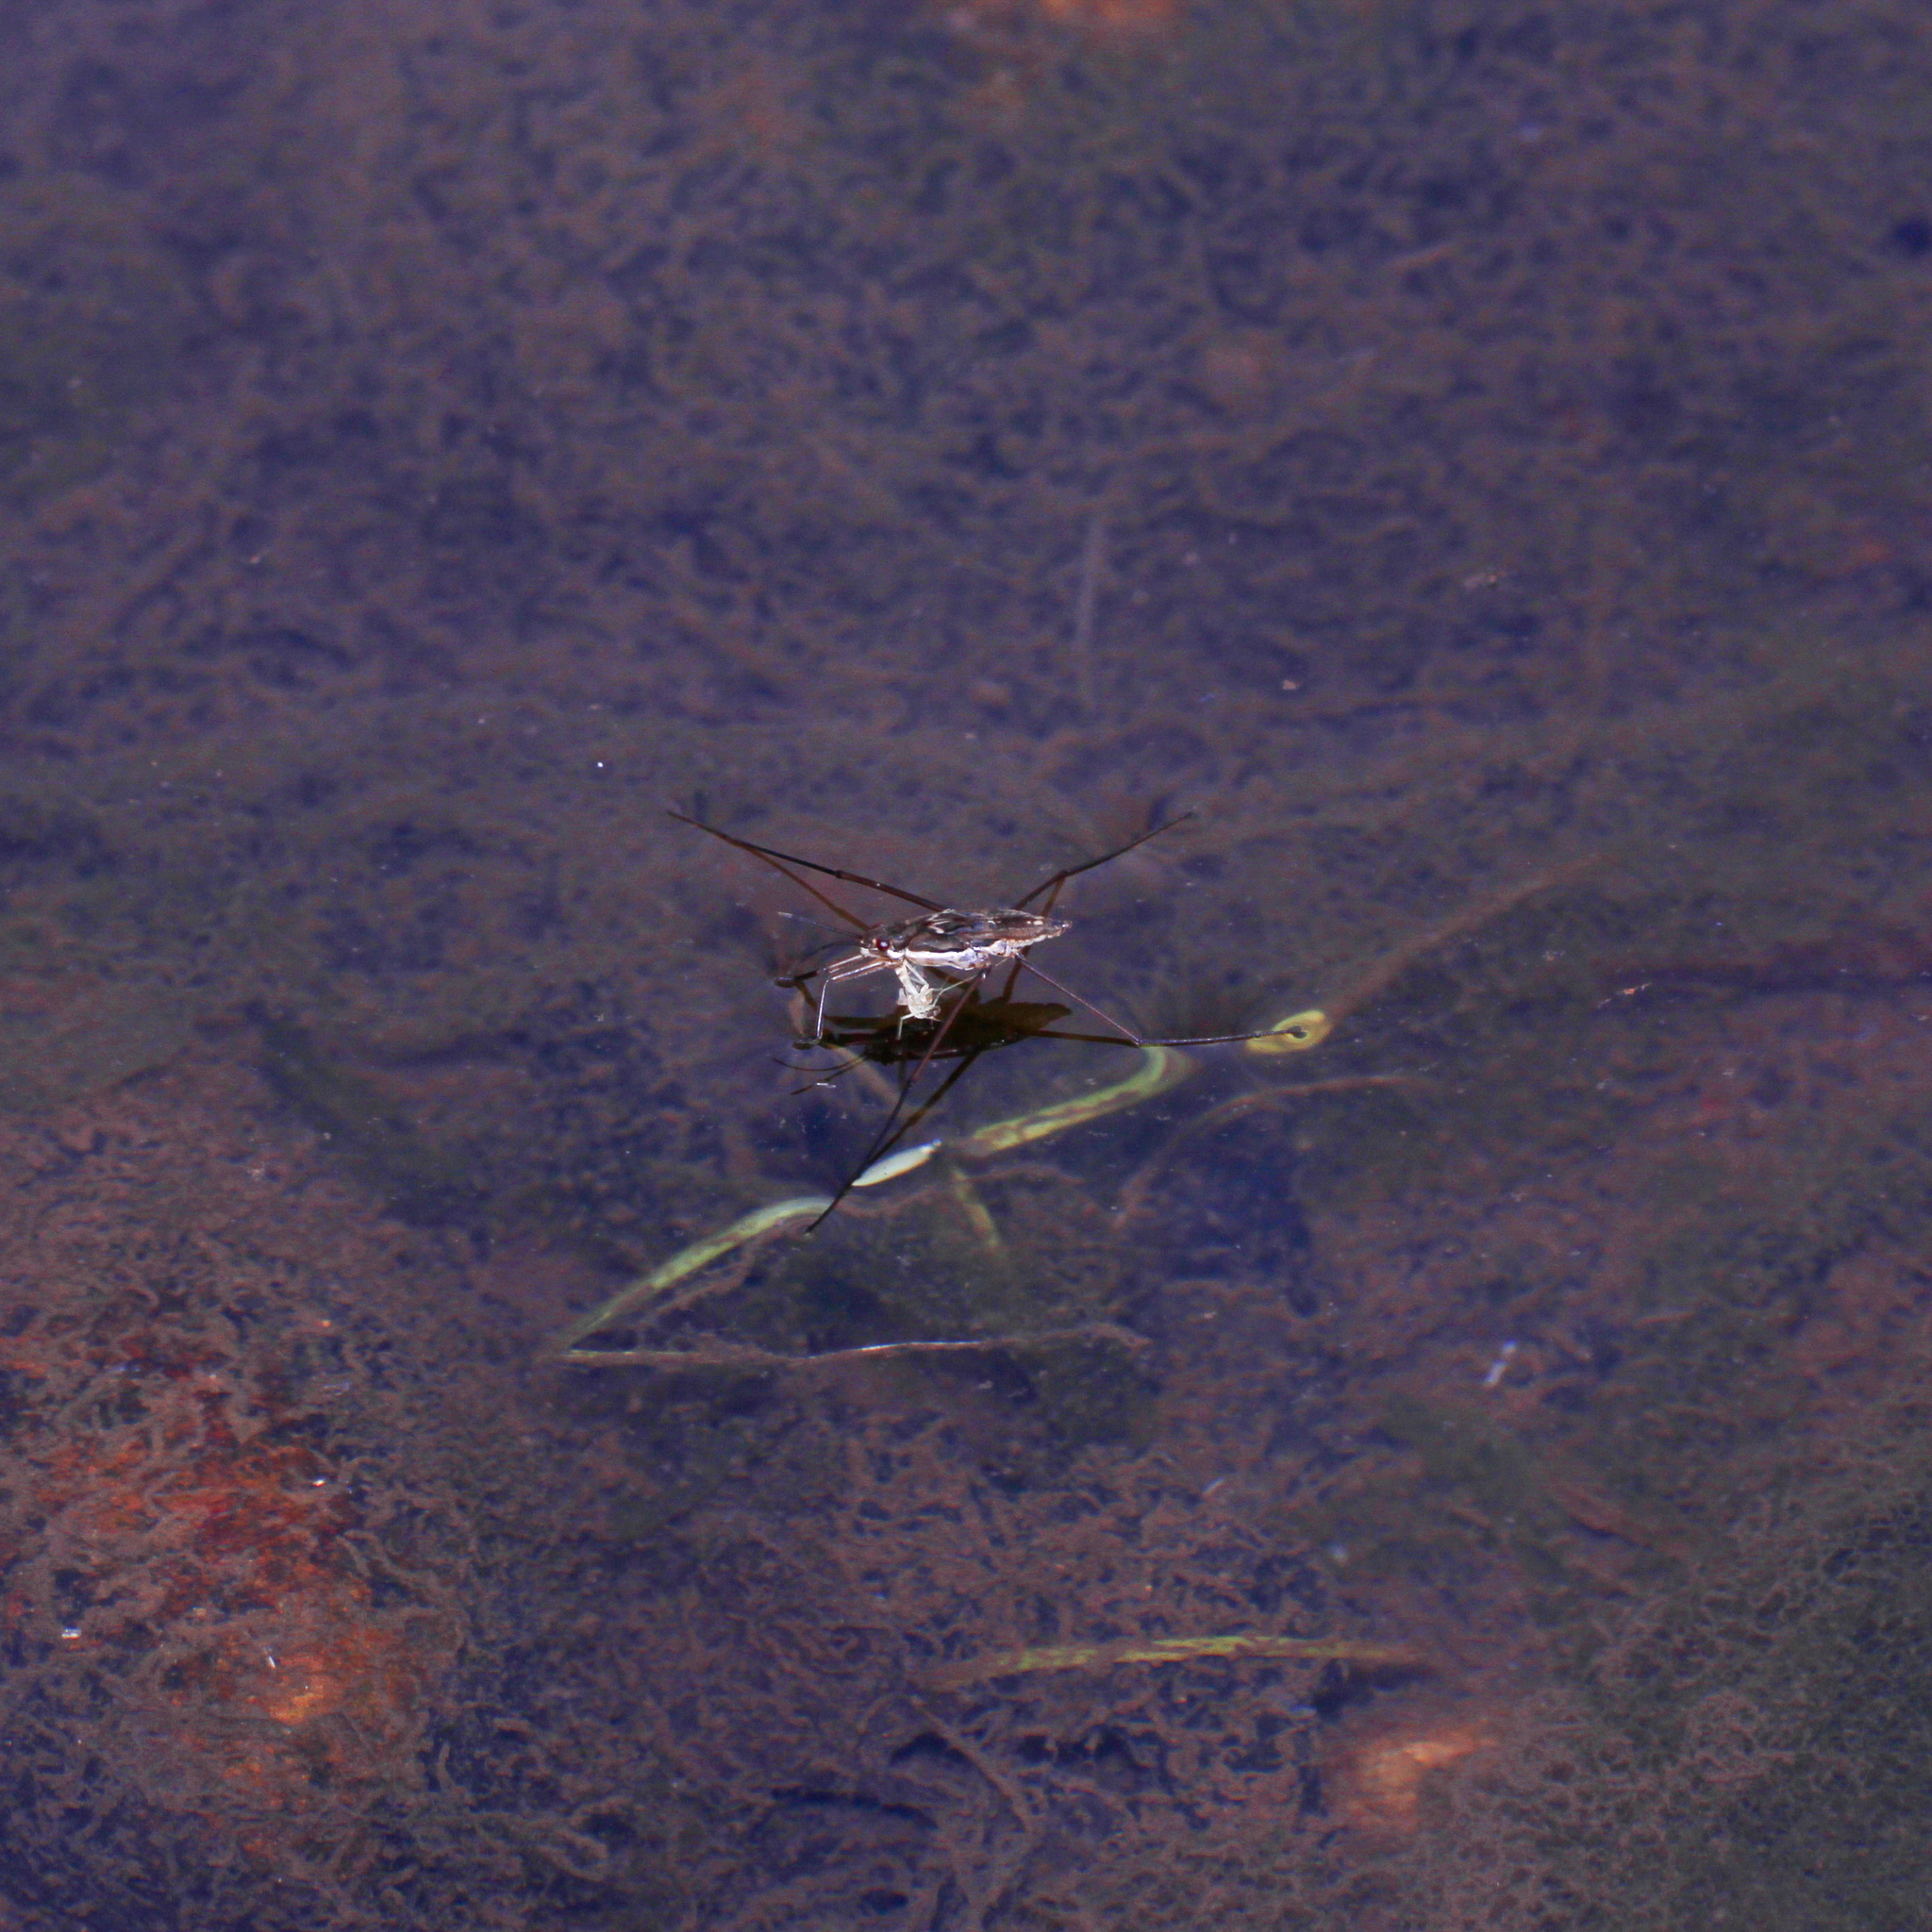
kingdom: Animalia
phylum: Arthropoda
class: Insecta
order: Hemiptera
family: Gerridae
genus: Aquarius
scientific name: Aquarius
